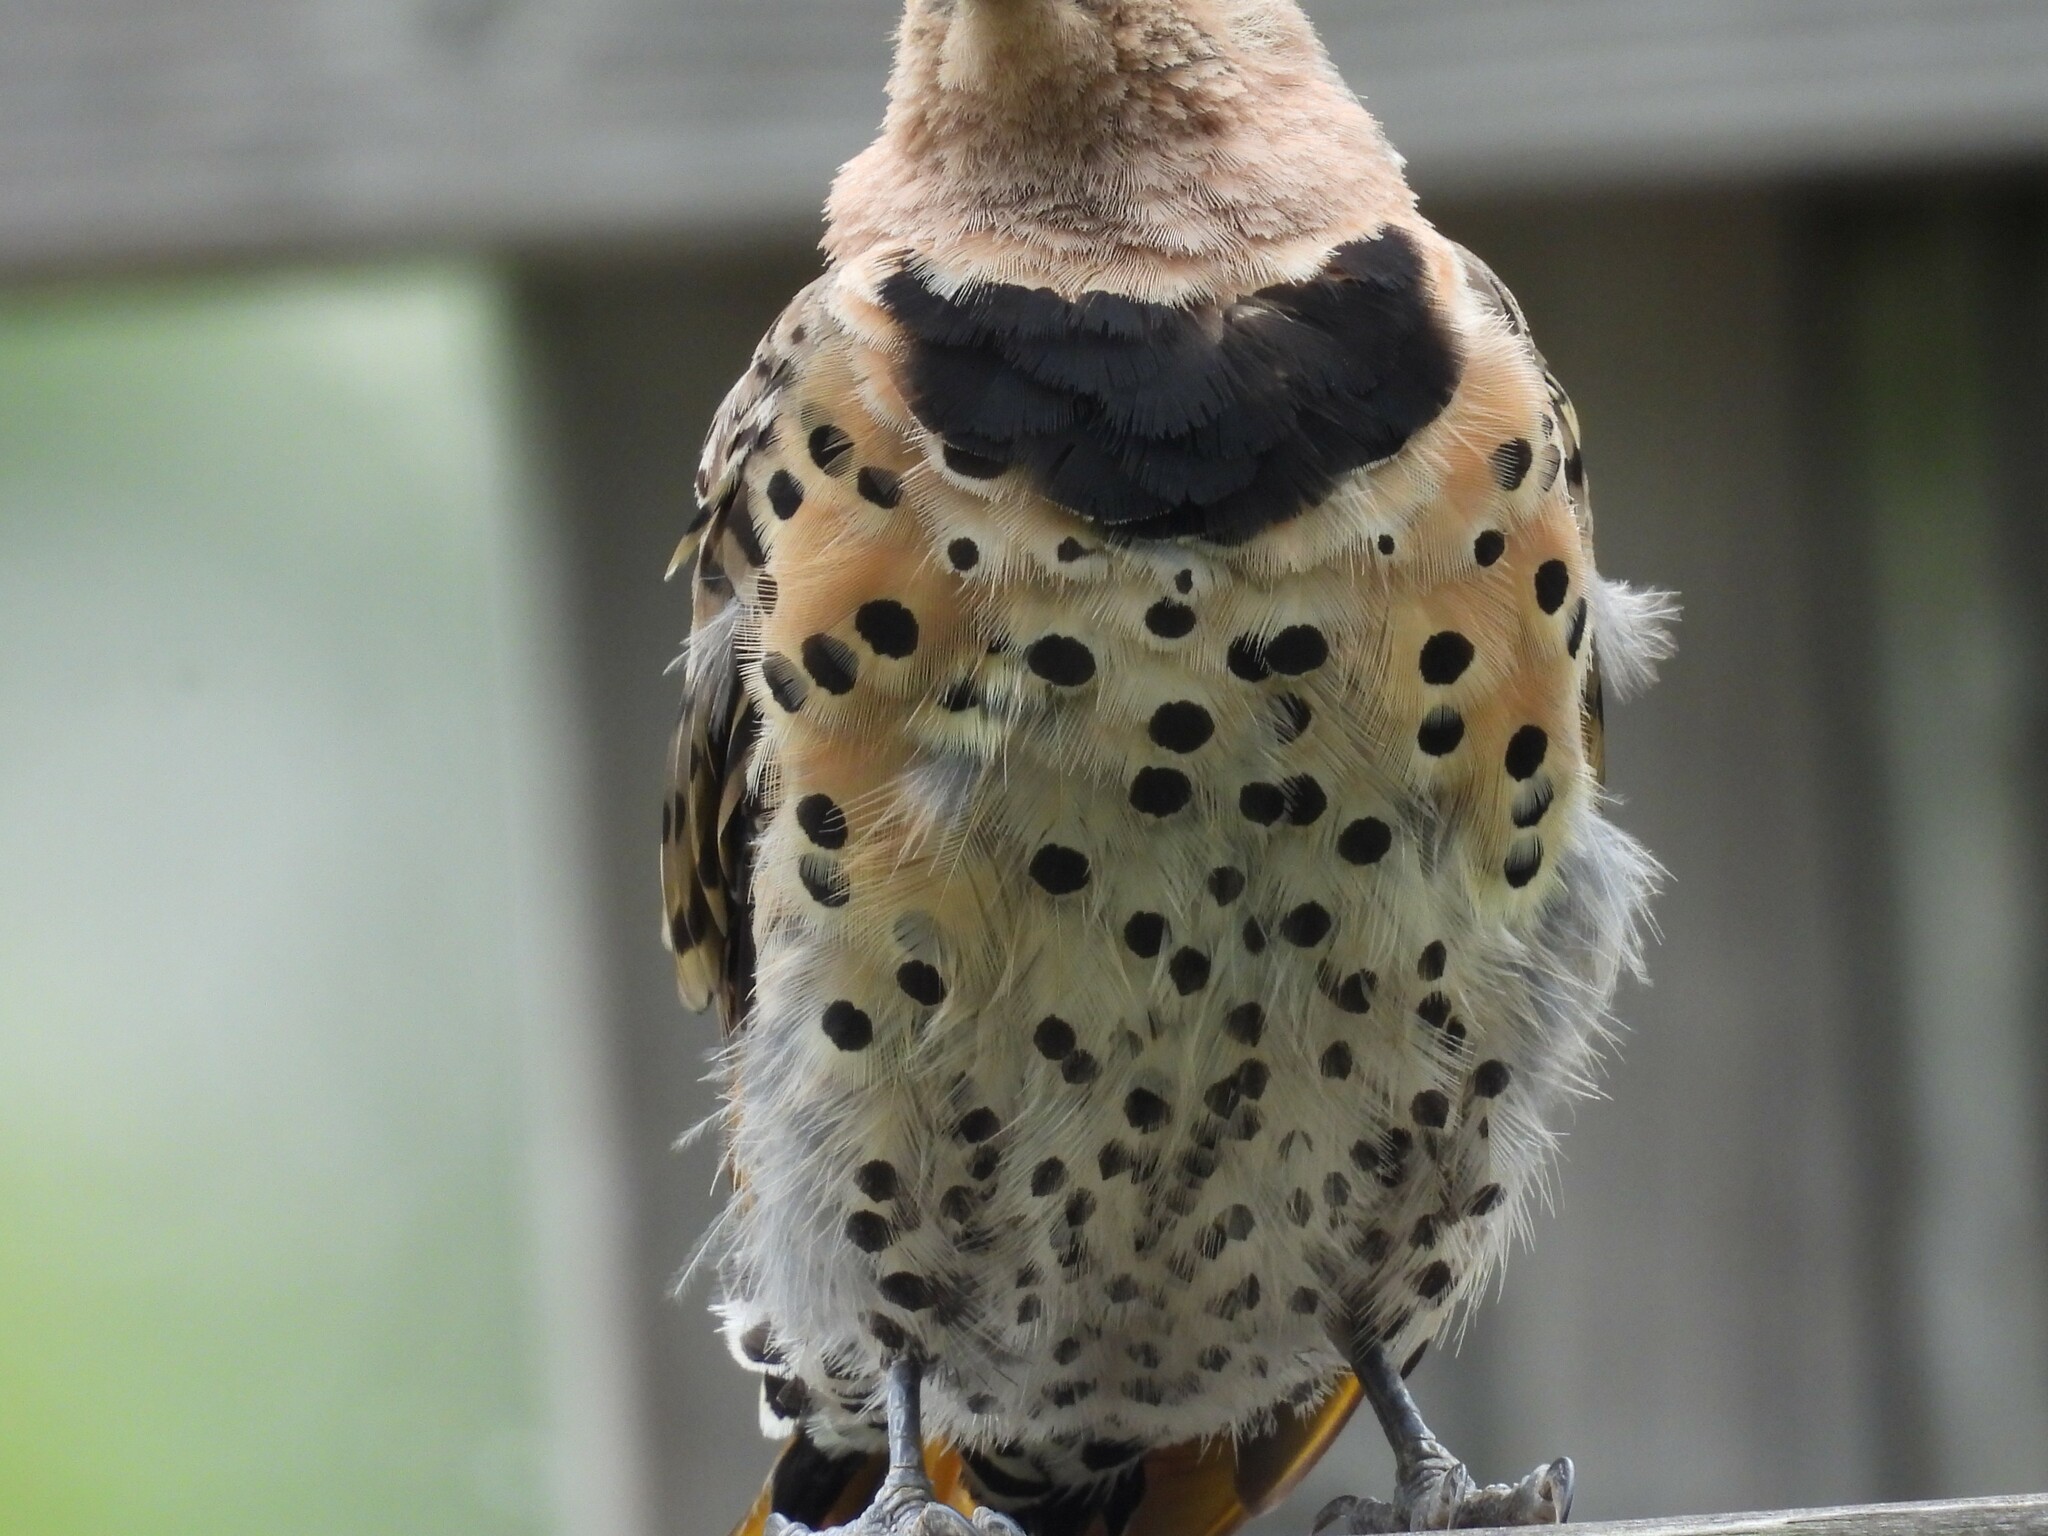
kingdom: Animalia
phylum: Chordata
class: Aves
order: Piciformes
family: Picidae
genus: Colaptes
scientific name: Colaptes auratus
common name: Northern flicker
